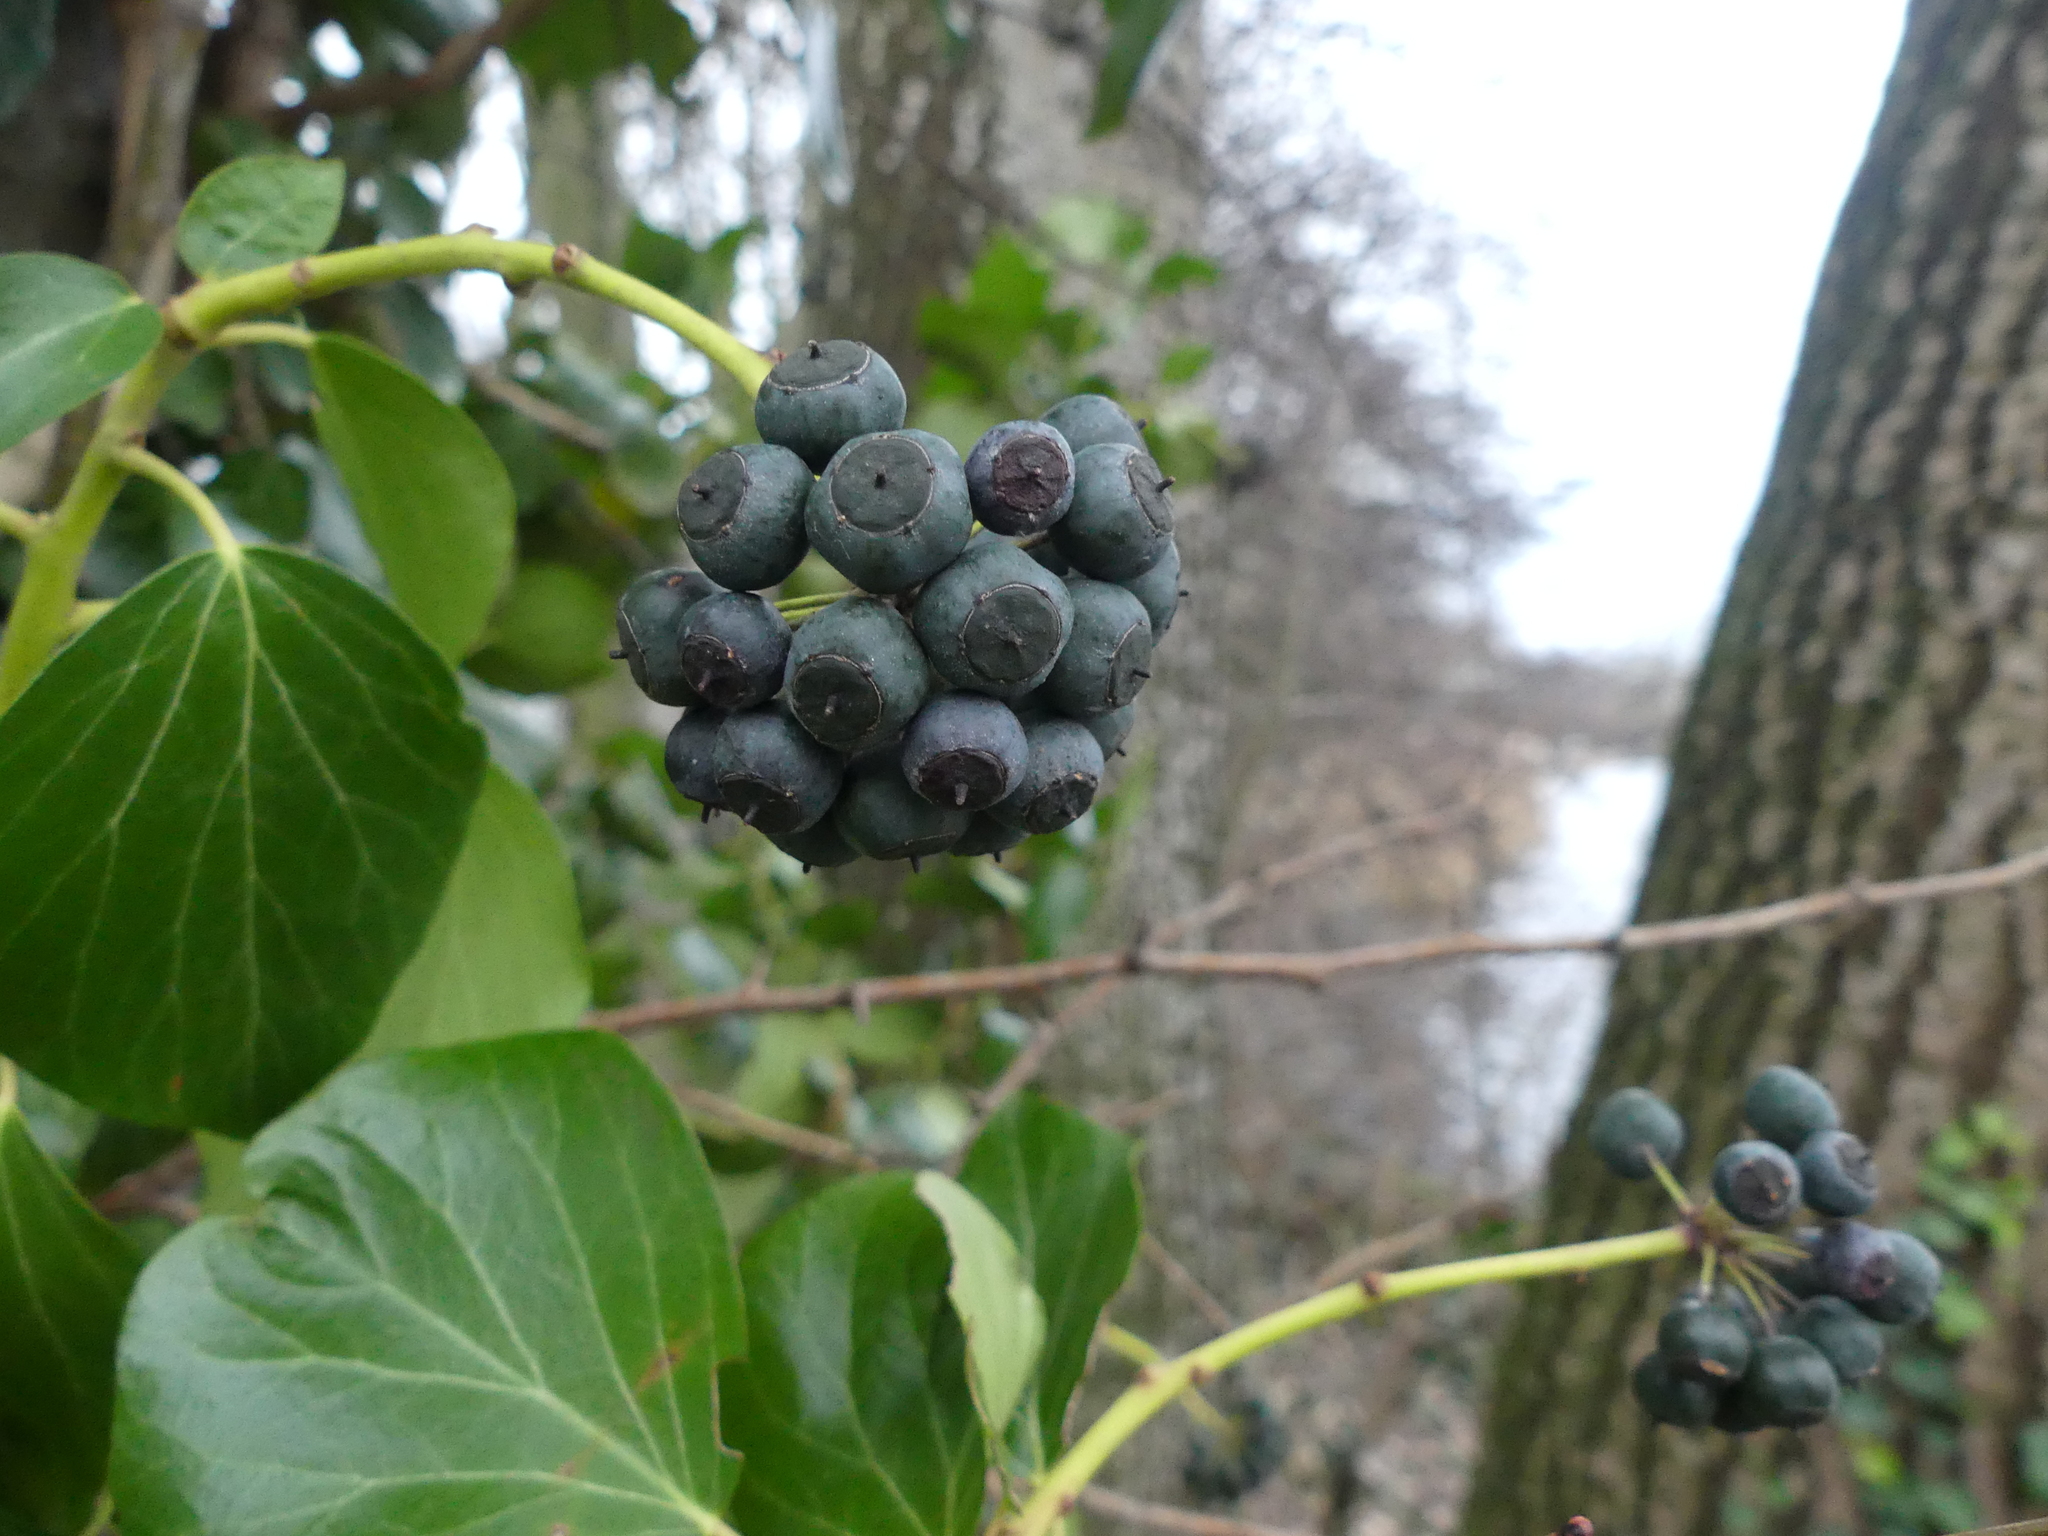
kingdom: Plantae
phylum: Tracheophyta
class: Magnoliopsida
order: Apiales
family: Araliaceae
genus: Hedera
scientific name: Hedera helix
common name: Ivy
